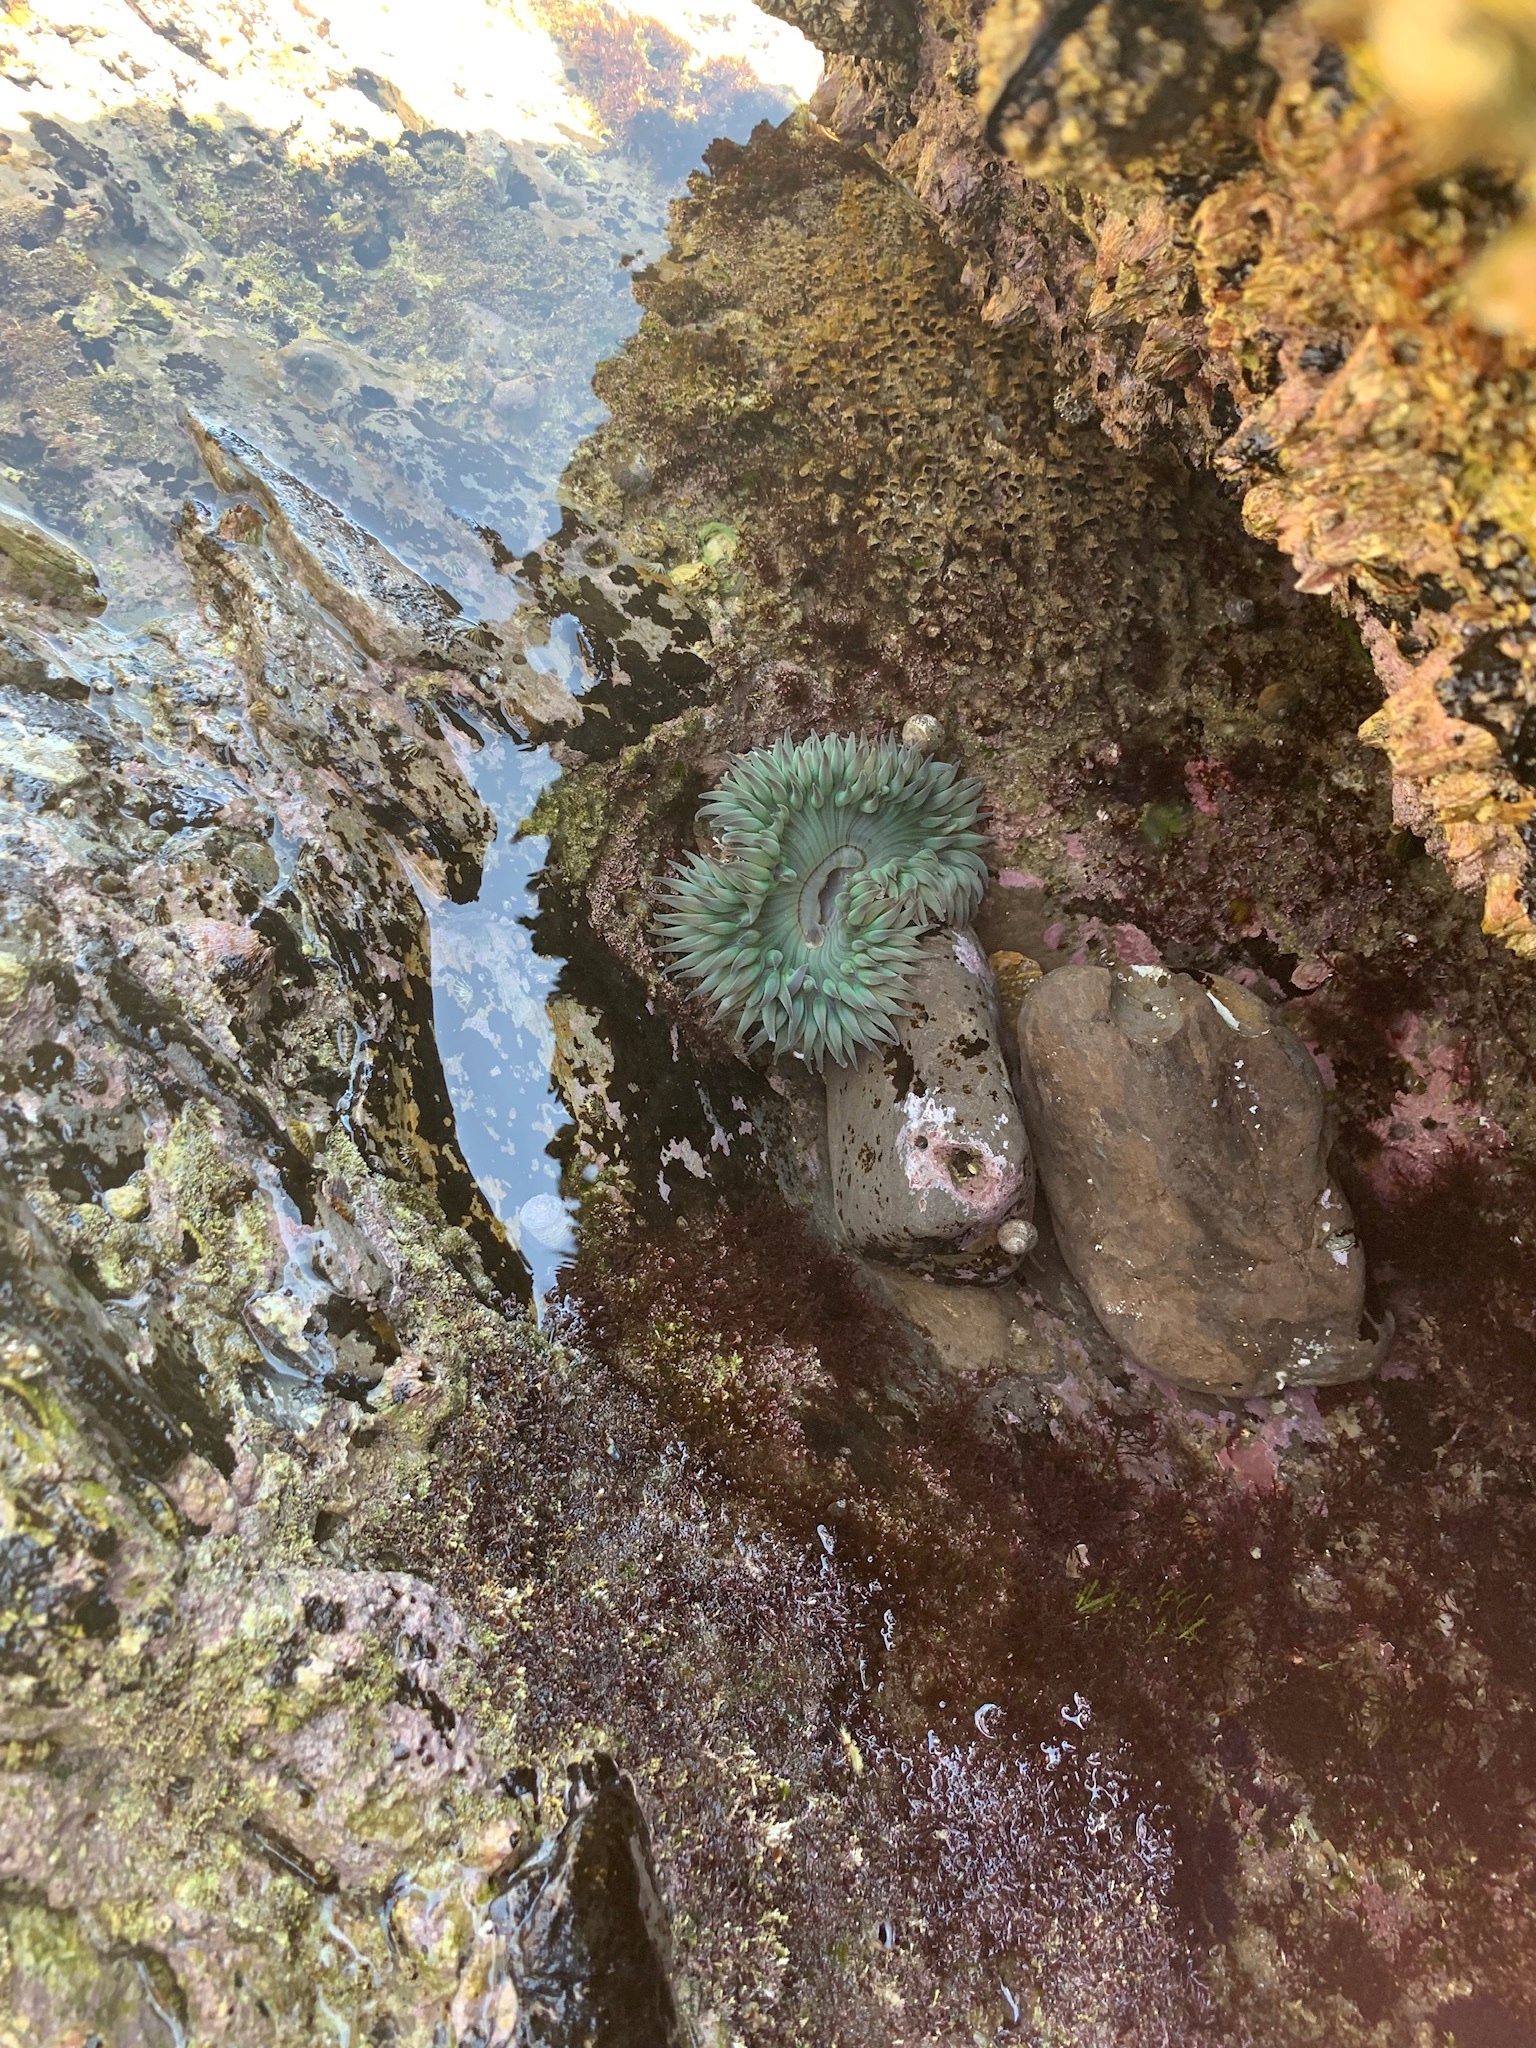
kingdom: Animalia
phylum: Cnidaria
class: Anthozoa
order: Actiniaria
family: Actiniidae
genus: Anthopleura
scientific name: Anthopleura sola
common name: Sun anemone
